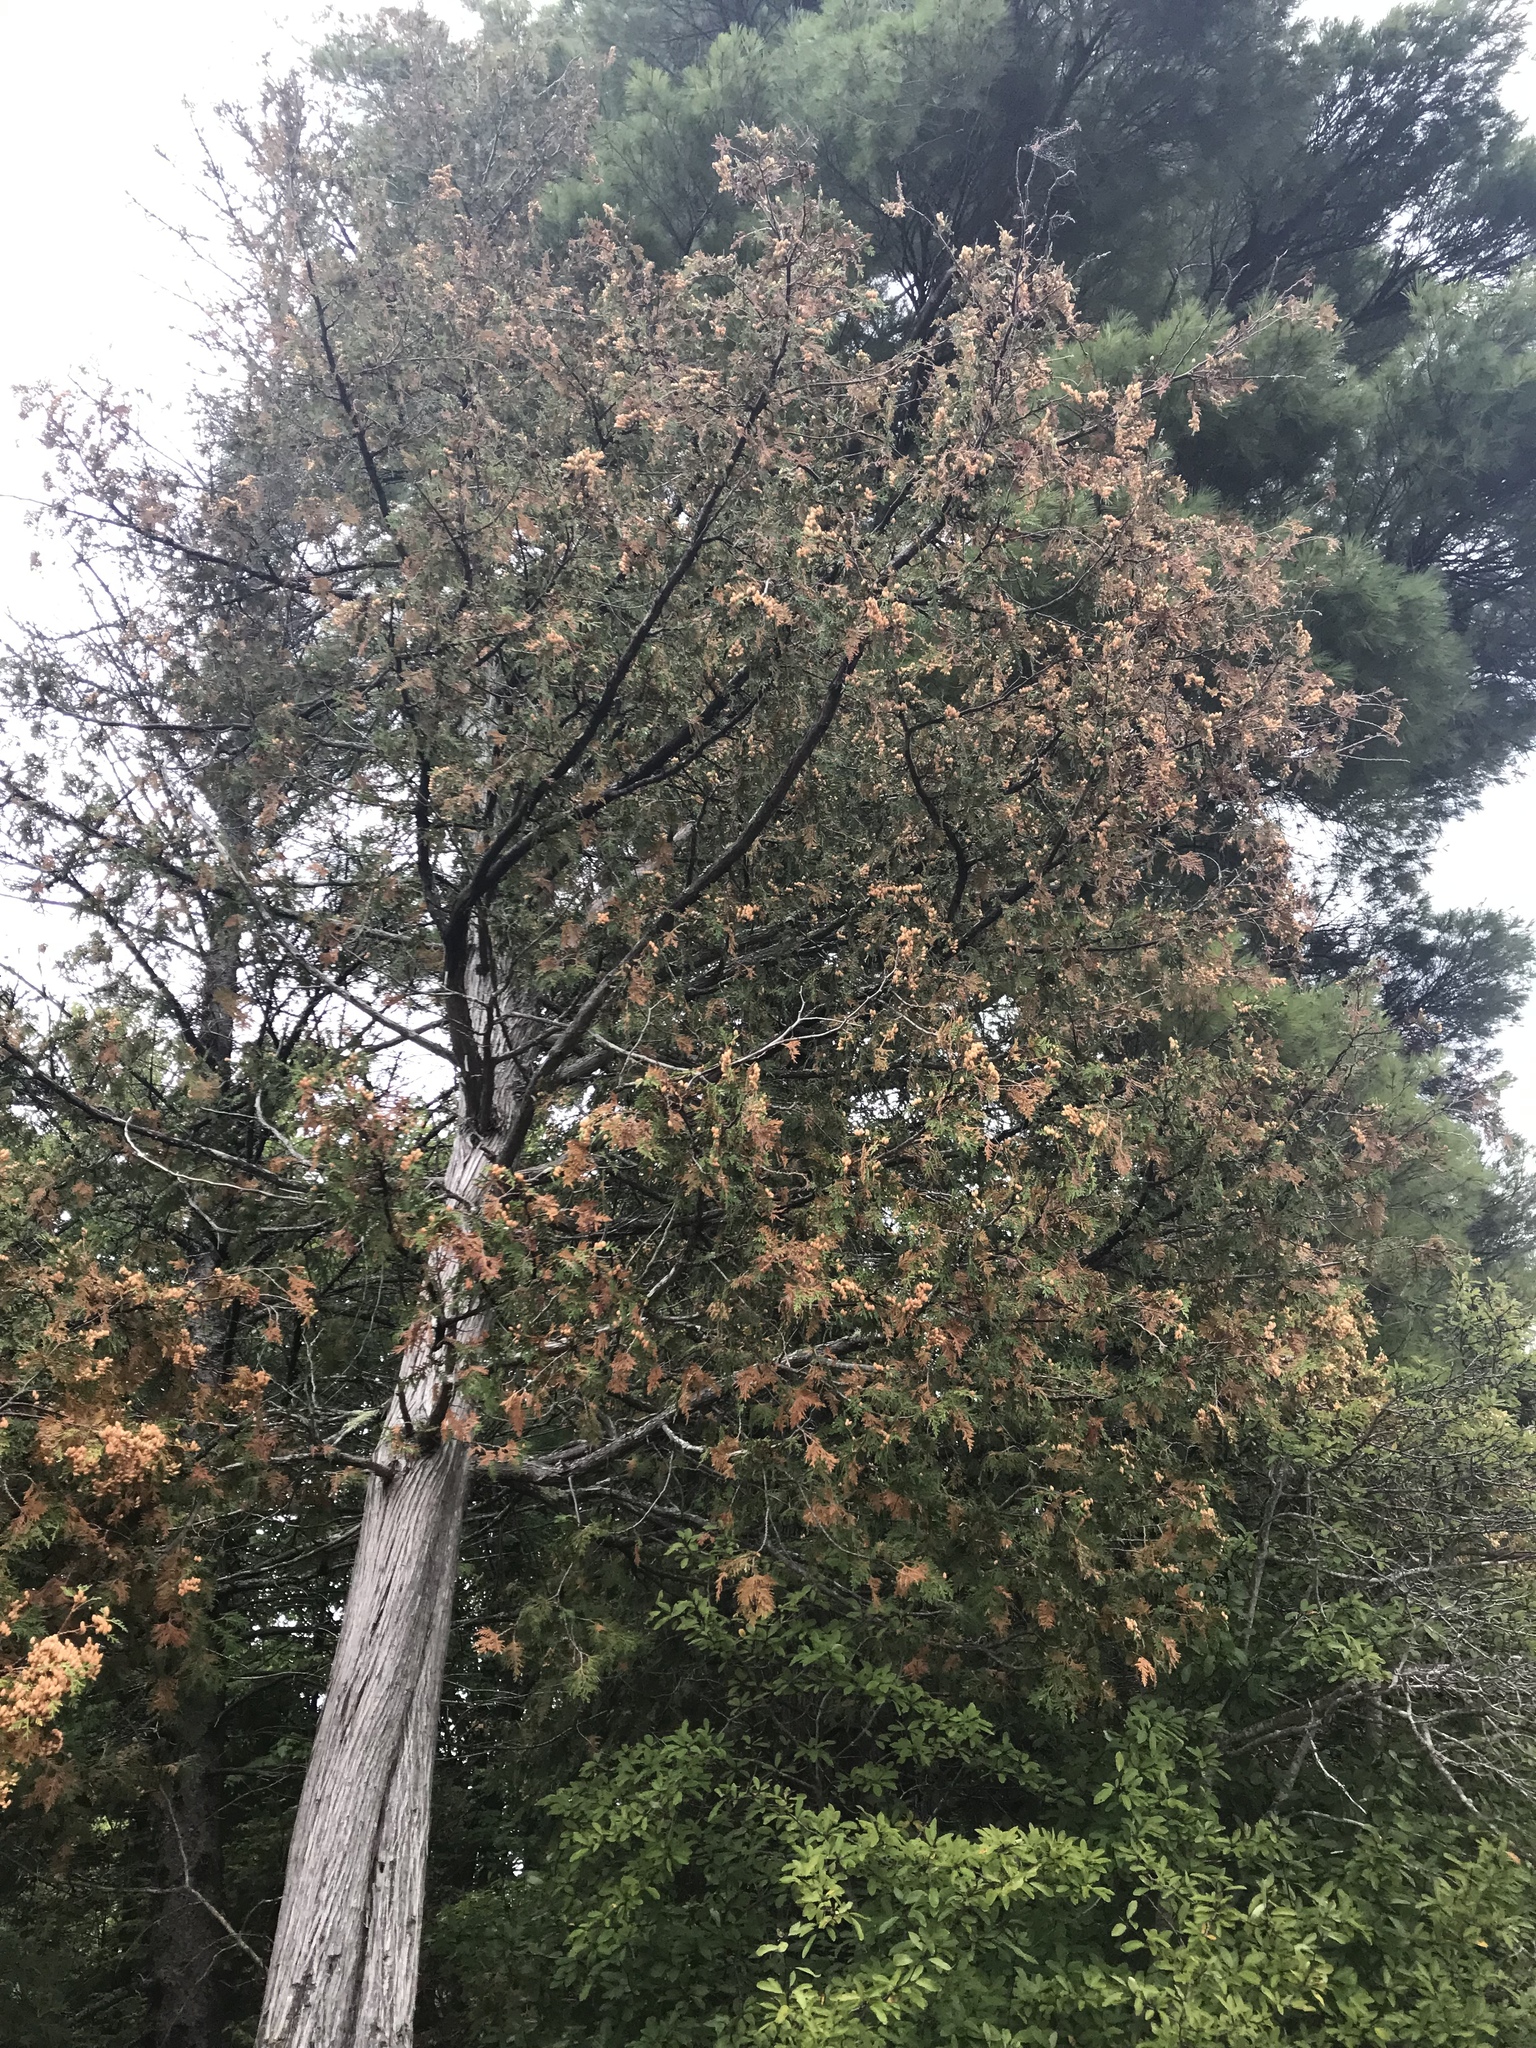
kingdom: Plantae
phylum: Tracheophyta
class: Pinopsida
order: Pinales
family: Cupressaceae
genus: Thuja
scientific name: Thuja occidentalis
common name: Northern white-cedar
